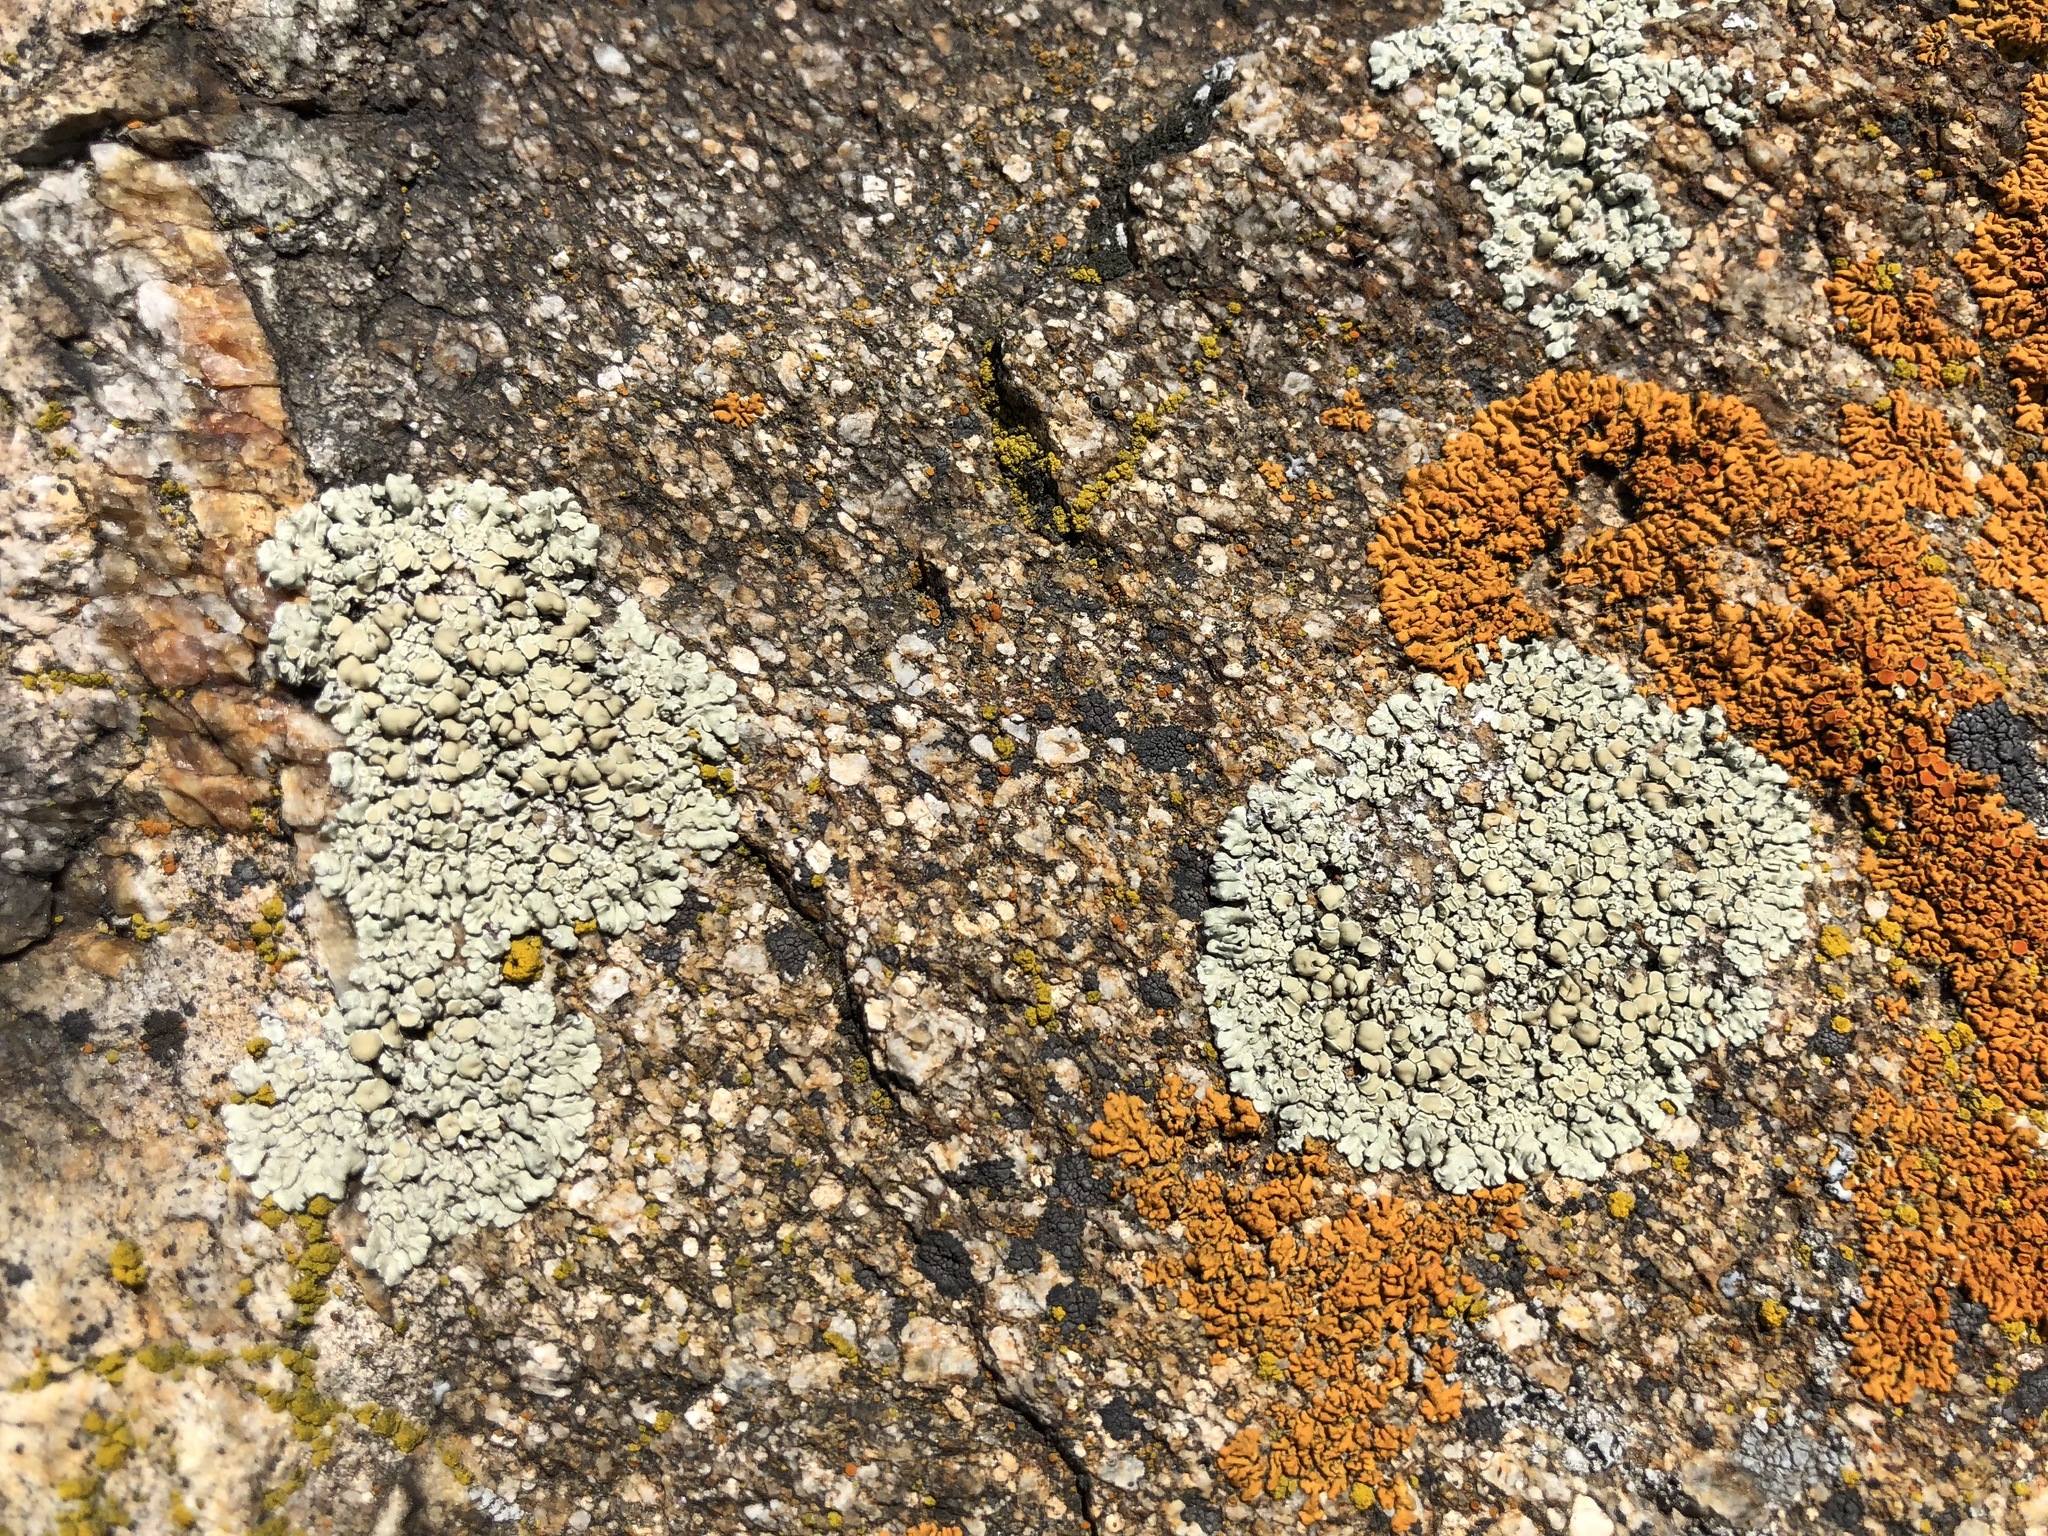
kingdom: Fungi
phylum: Ascomycota
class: Lecanoromycetes
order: Lecanorales
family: Lecanoraceae
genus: Protoparmeliopsis
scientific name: Protoparmeliopsis muralis
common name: Stonewall rim lichen
